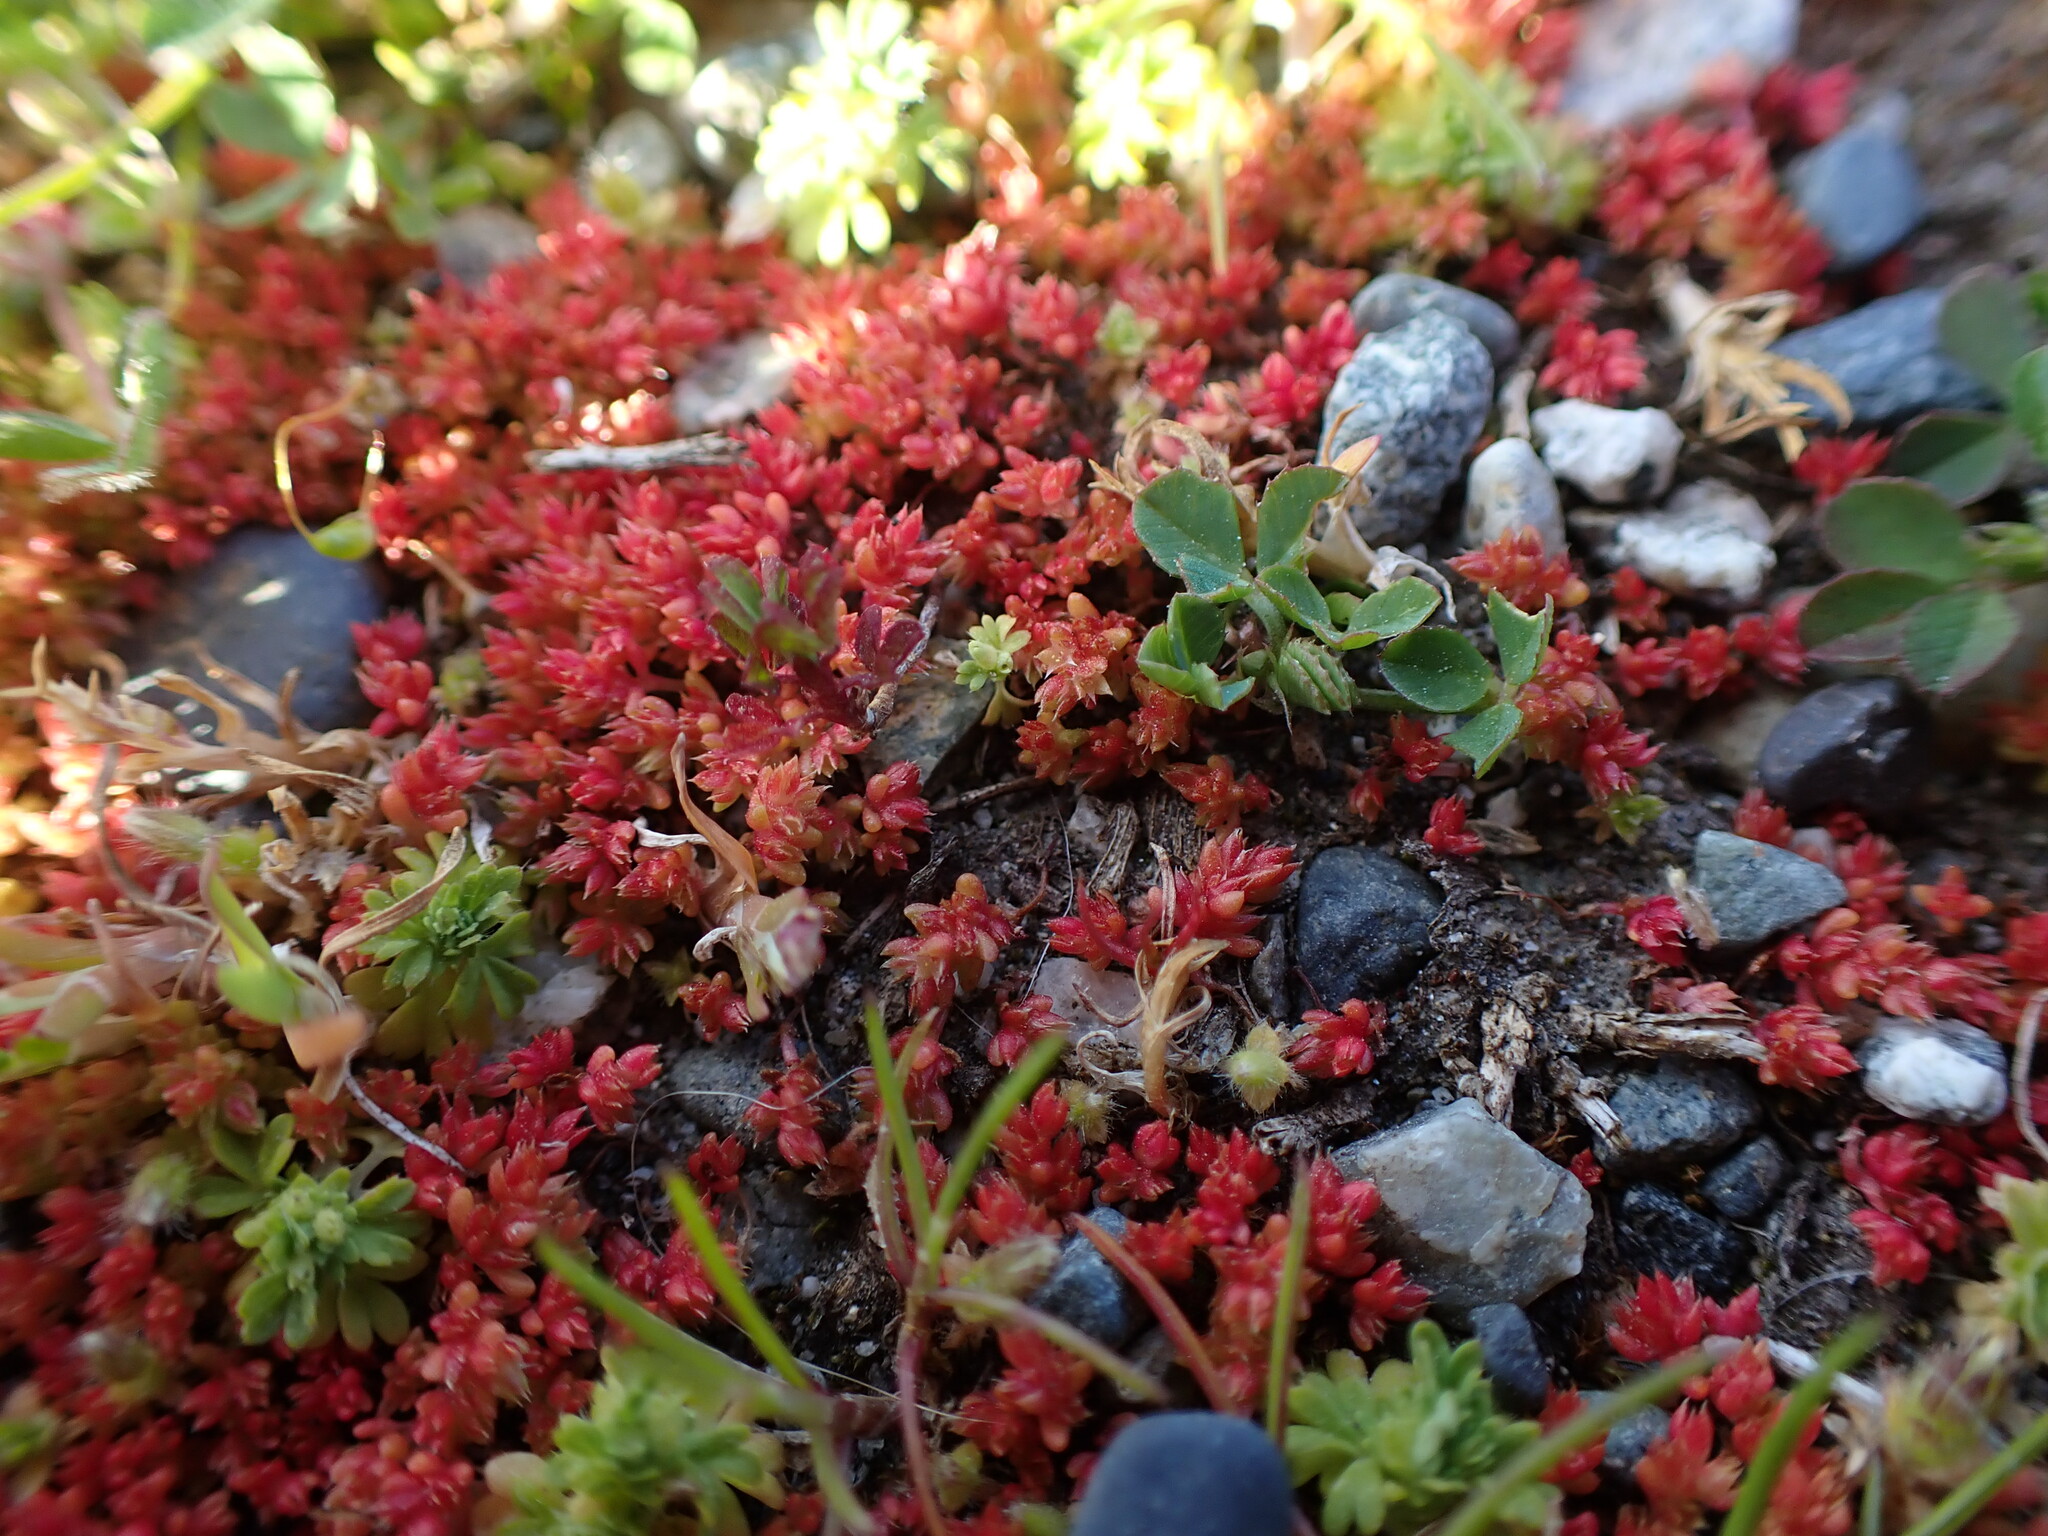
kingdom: Plantae
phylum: Tracheophyta
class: Magnoliopsida
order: Saxifragales
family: Crassulaceae
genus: Crassula
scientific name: Crassula tillaea
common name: Mossy stonecrop
